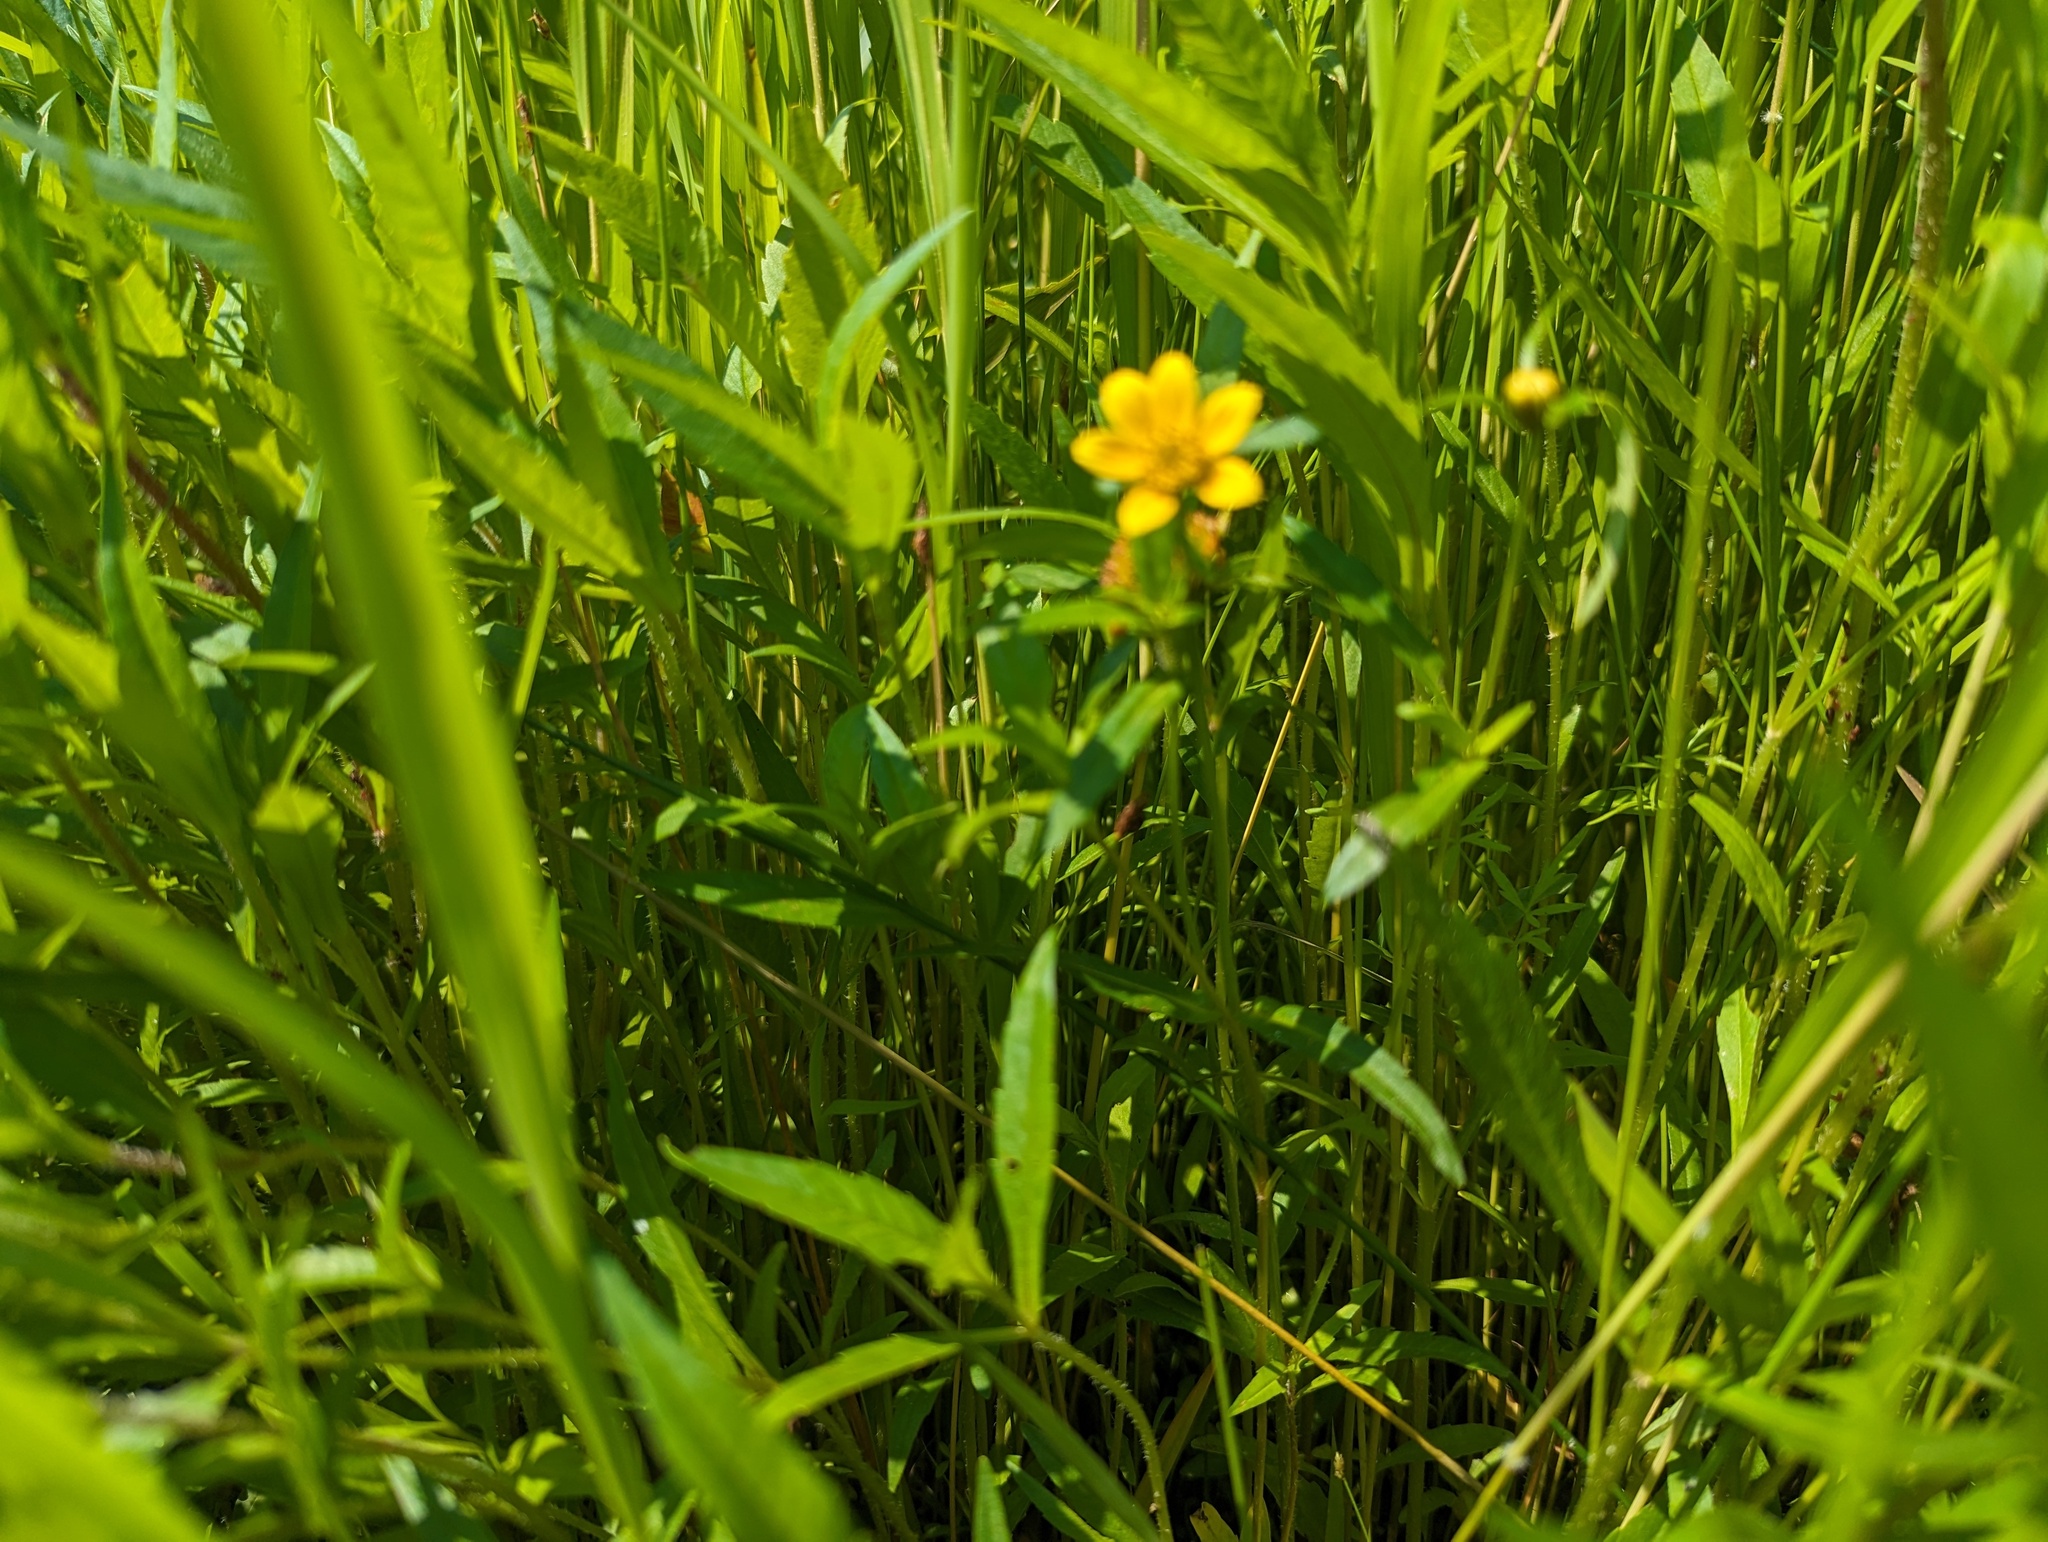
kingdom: Plantae
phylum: Tracheophyta
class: Magnoliopsida
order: Asterales
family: Asteraceae
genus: Bidens
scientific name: Bidens cernua
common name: Nodding bur-marigold
